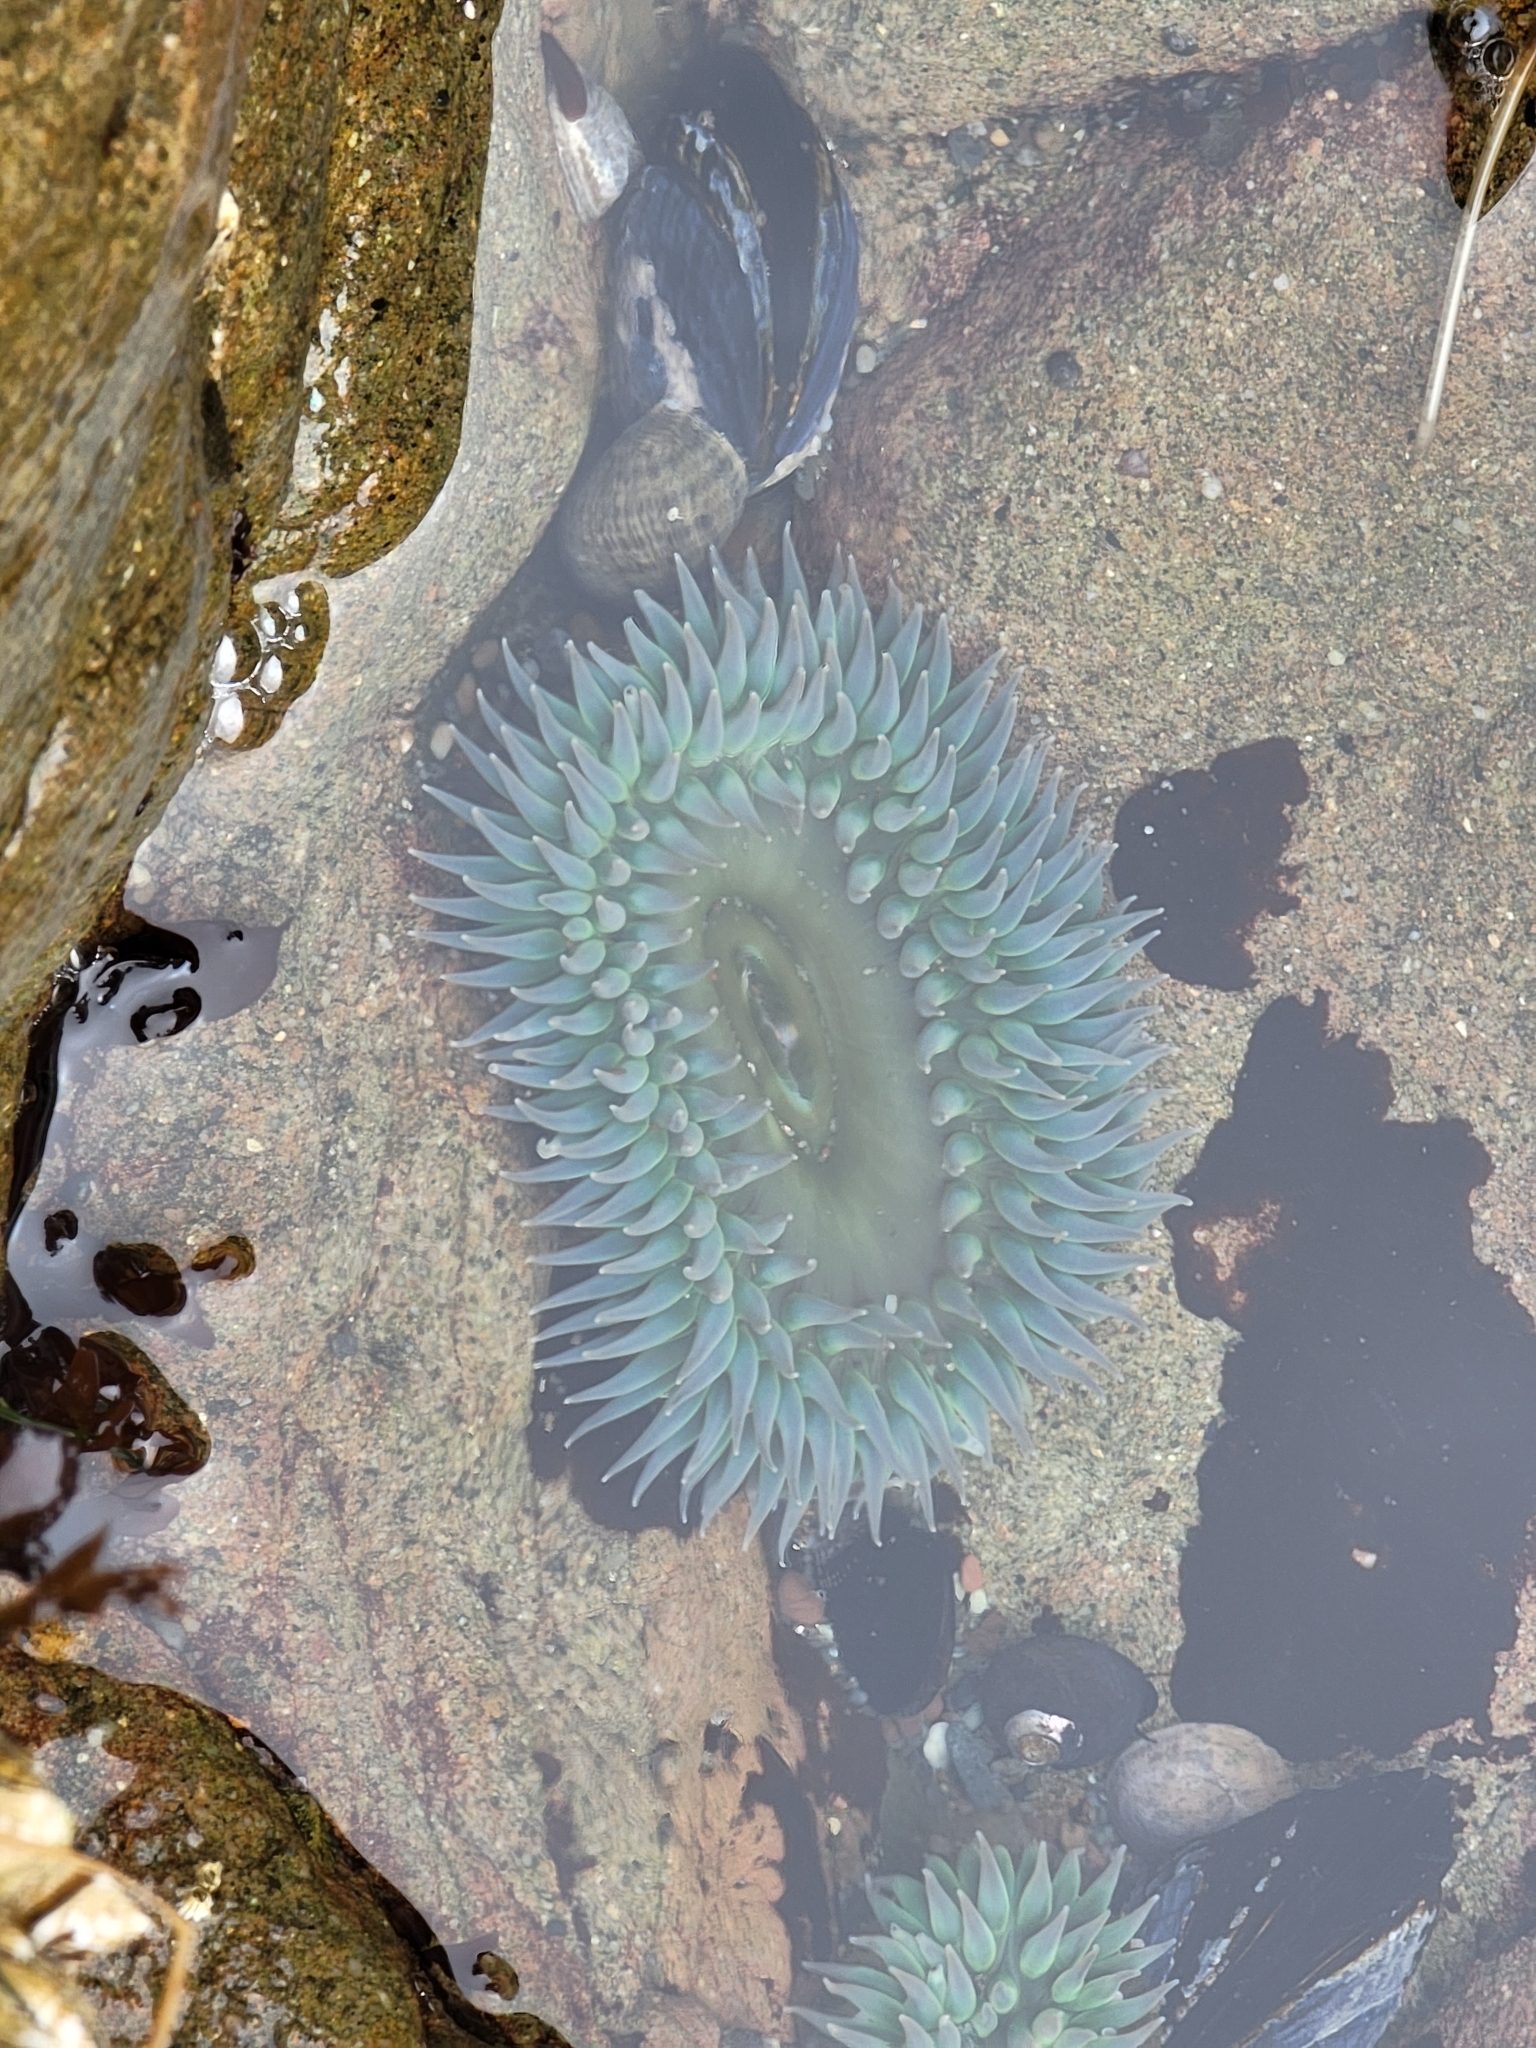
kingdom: Animalia
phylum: Cnidaria
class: Anthozoa
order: Actiniaria
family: Actiniidae
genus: Anthopleura
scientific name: Anthopleura xanthogrammica
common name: Giant green anemone
